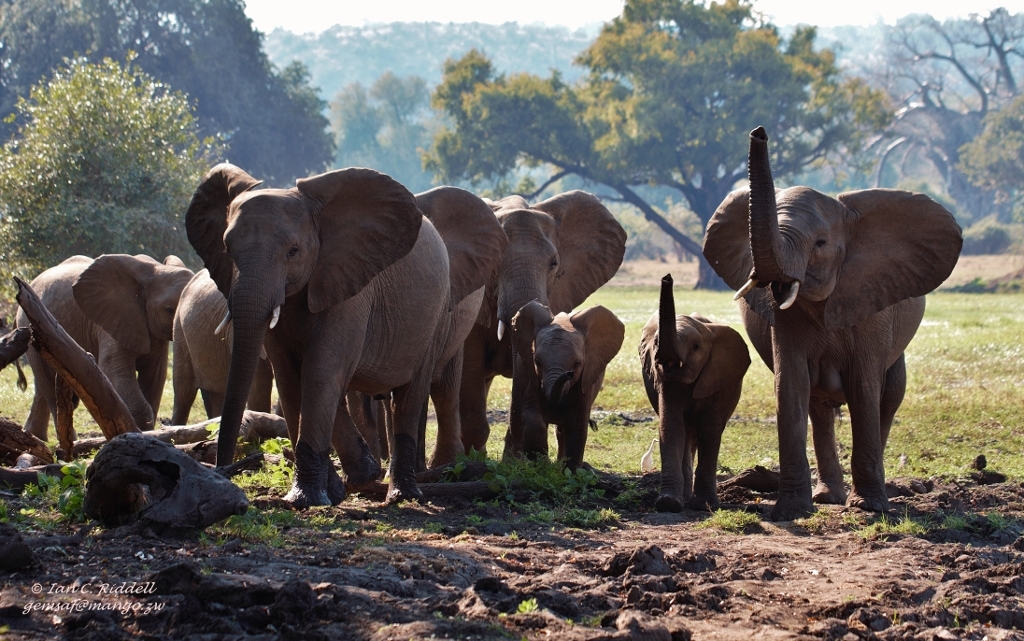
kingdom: Animalia
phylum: Chordata
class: Mammalia
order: Proboscidea
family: Elephantidae
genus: Loxodonta
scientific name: Loxodonta africana
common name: African elephant
